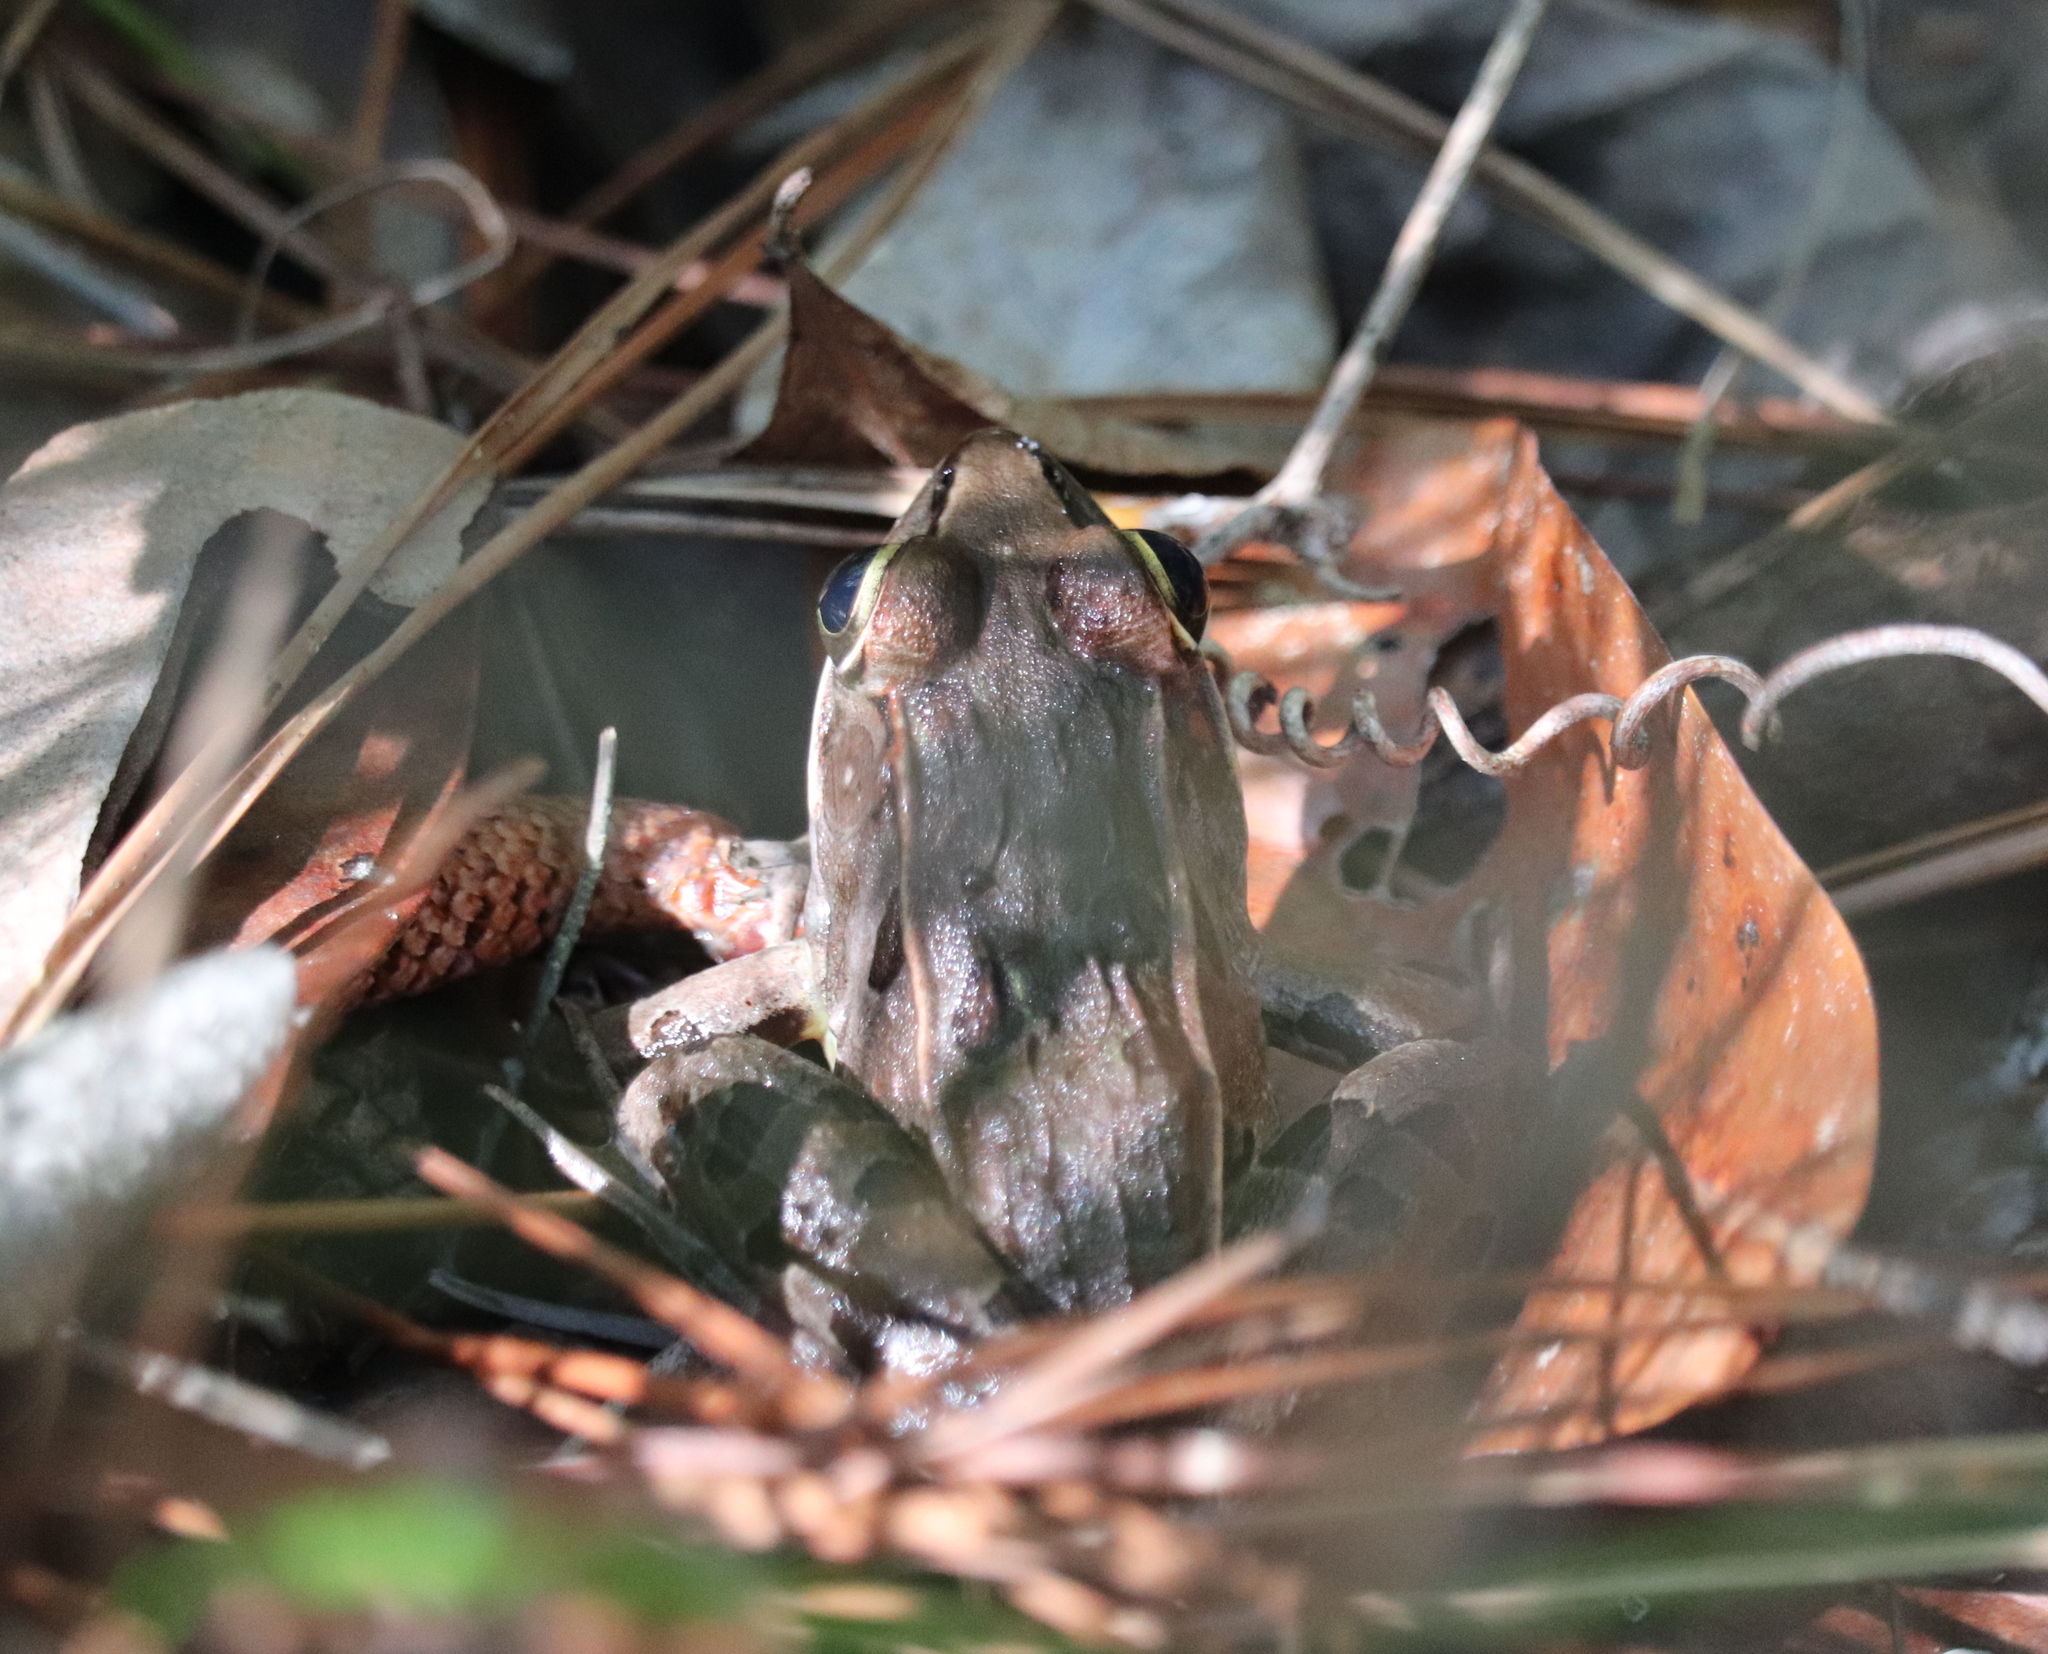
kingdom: Animalia
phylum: Chordata
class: Amphibia
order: Anura
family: Ranidae
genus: Lithobates
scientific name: Lithobates sphenocephalus
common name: Southern leopard frog
